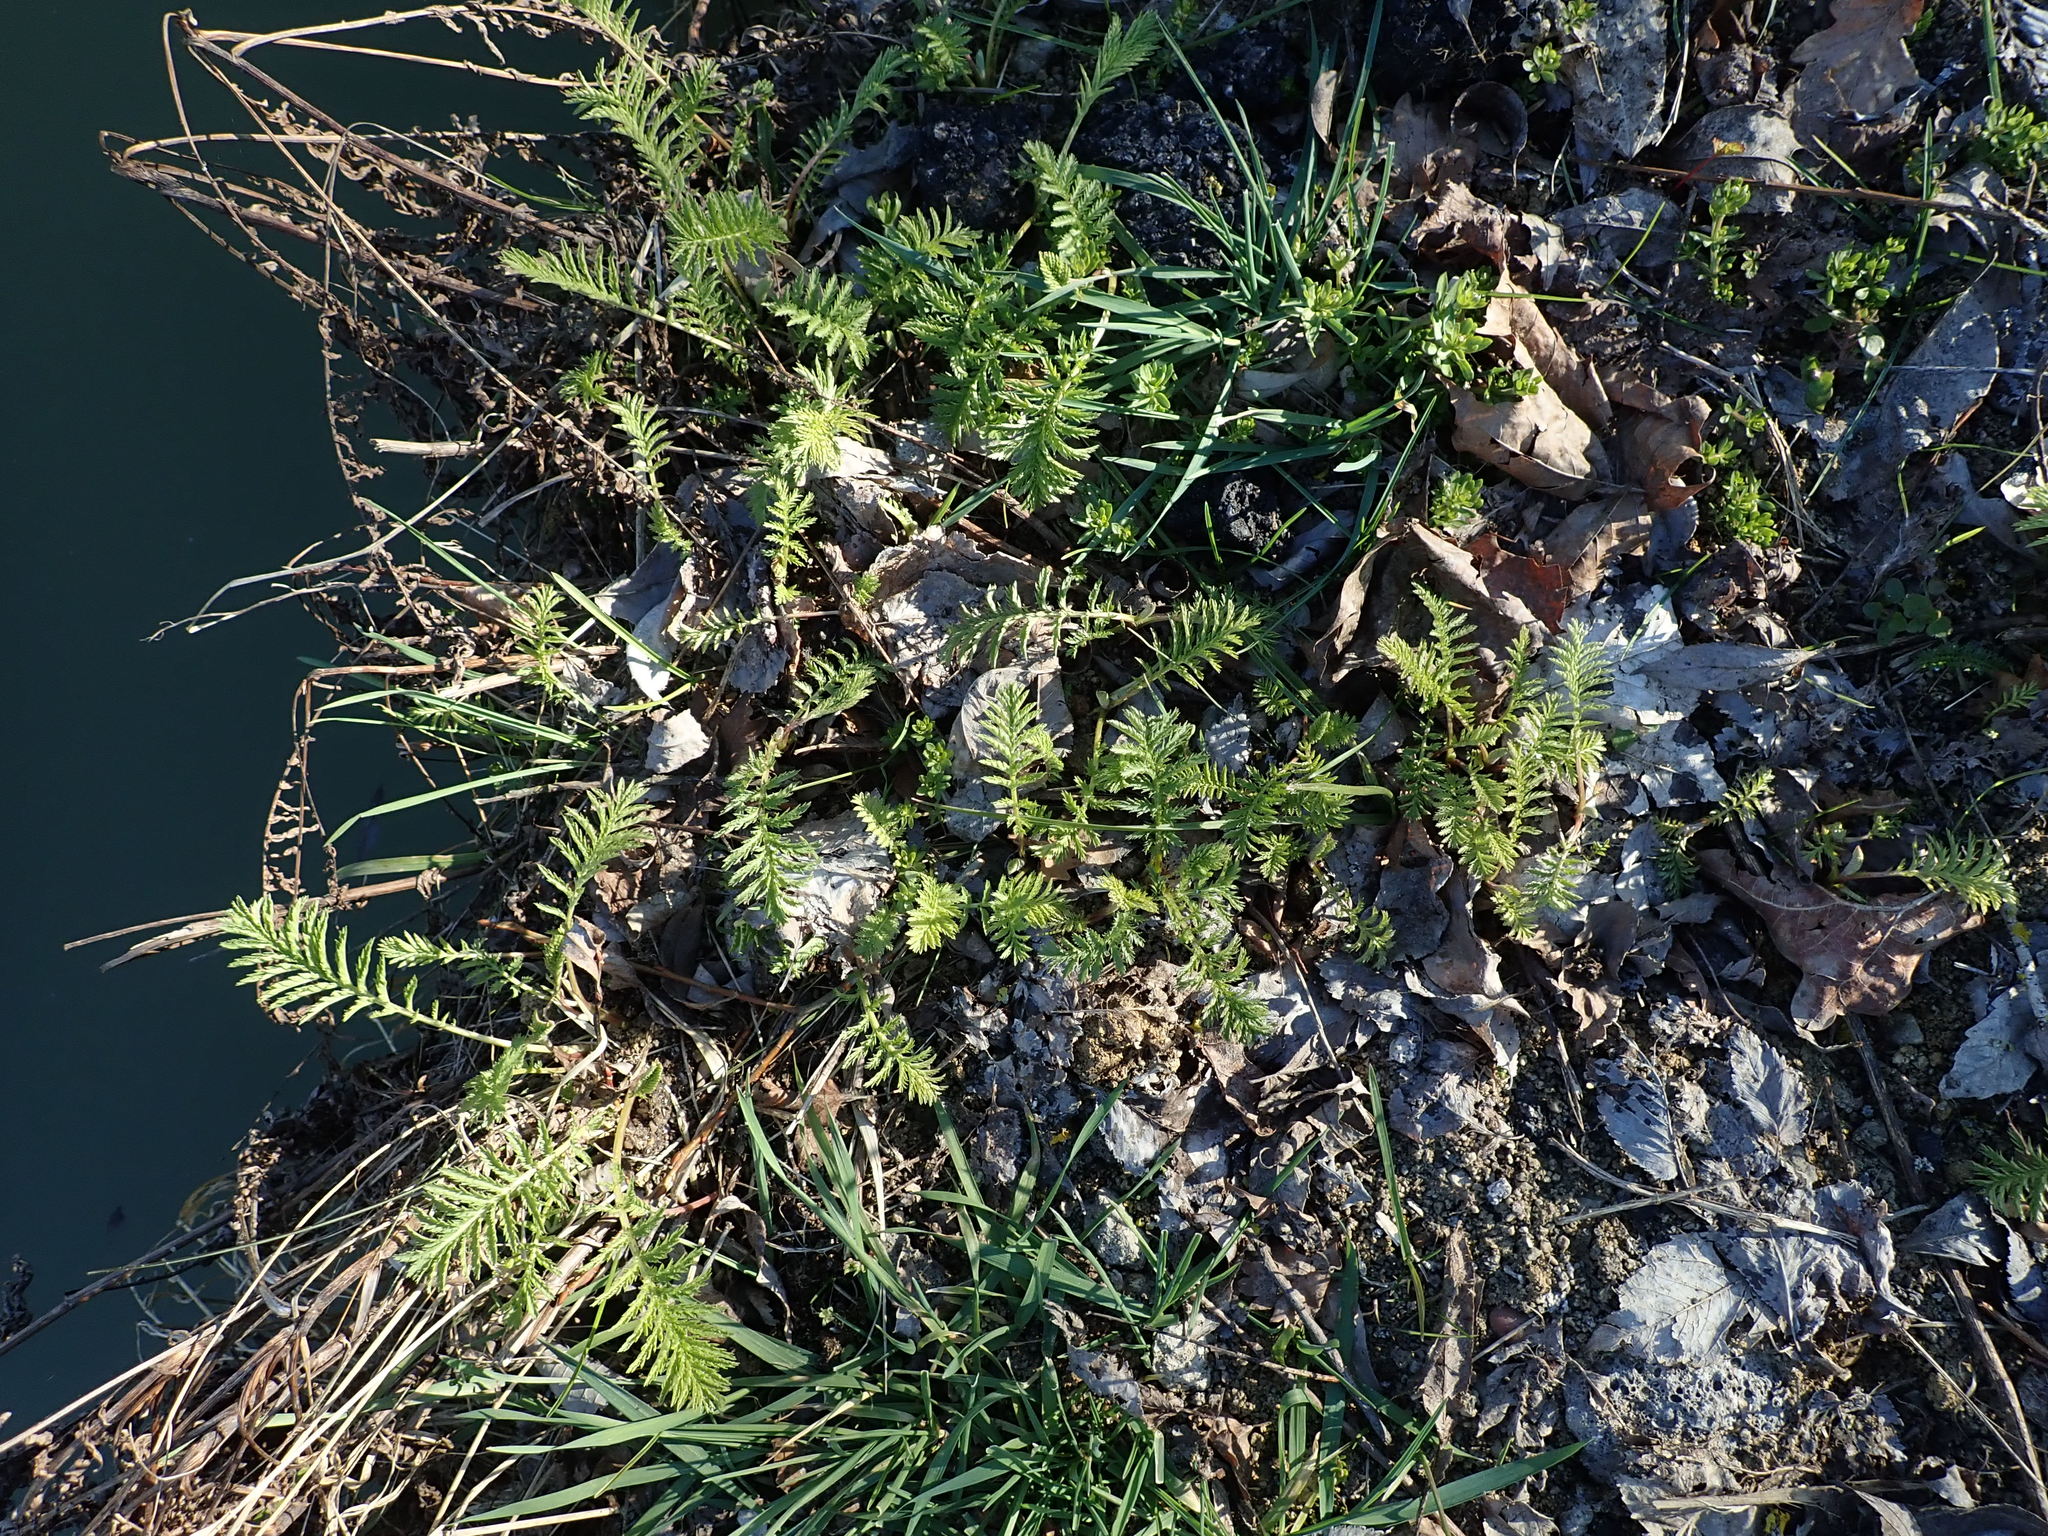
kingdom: Plantae
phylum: Tracheophyta
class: Magnoliopsida
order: Asterales
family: Asteraceae
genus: Tanacetum
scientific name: Tanacetum vulgare
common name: Common tansy
